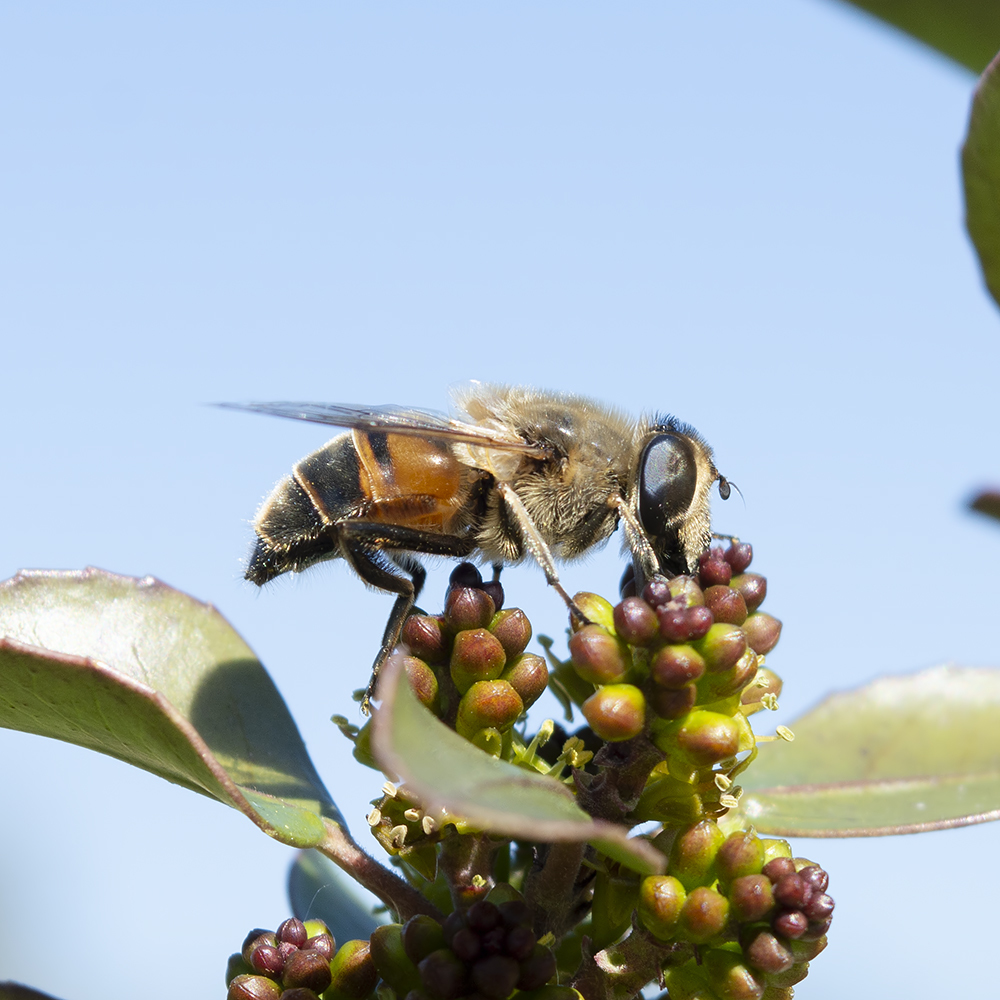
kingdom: Animalia
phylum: Arthropoda
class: Insecta
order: Diptera
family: Syrphidae
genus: Eristalis
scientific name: Eristalis tenax
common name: Drone fly
